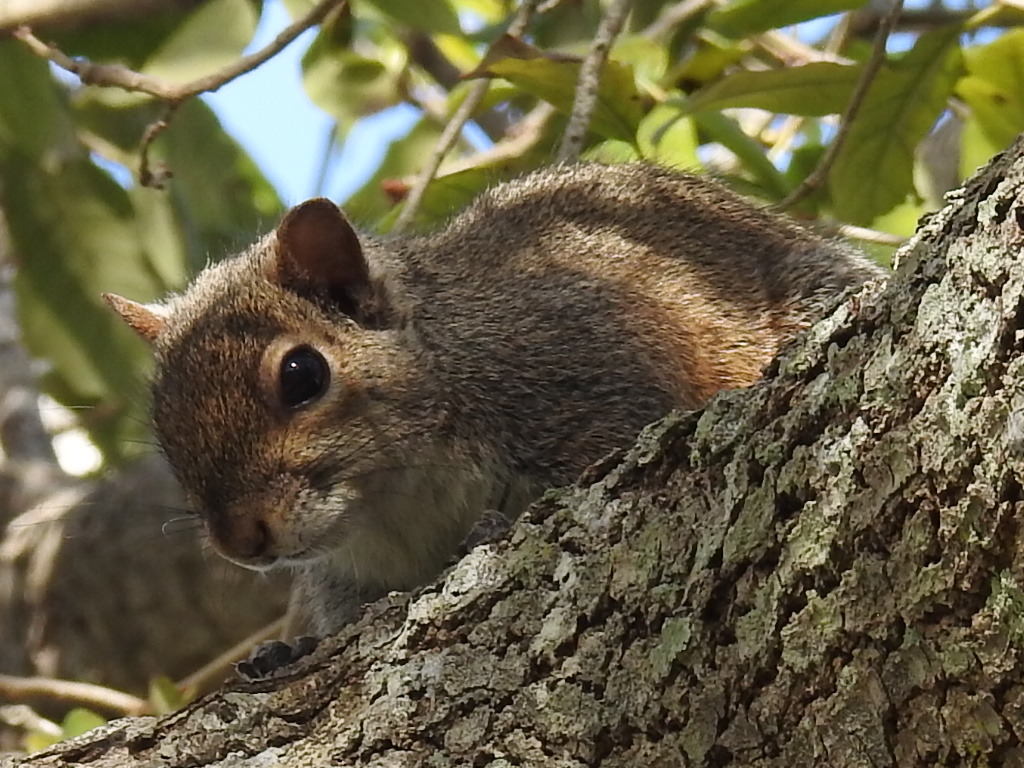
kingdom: Animalia
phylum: Chordata
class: Mammalia
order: Rodentia
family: Sciuridae
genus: Sciurus
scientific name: Sciurus carolinensis
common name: Eastern gray squirrel
